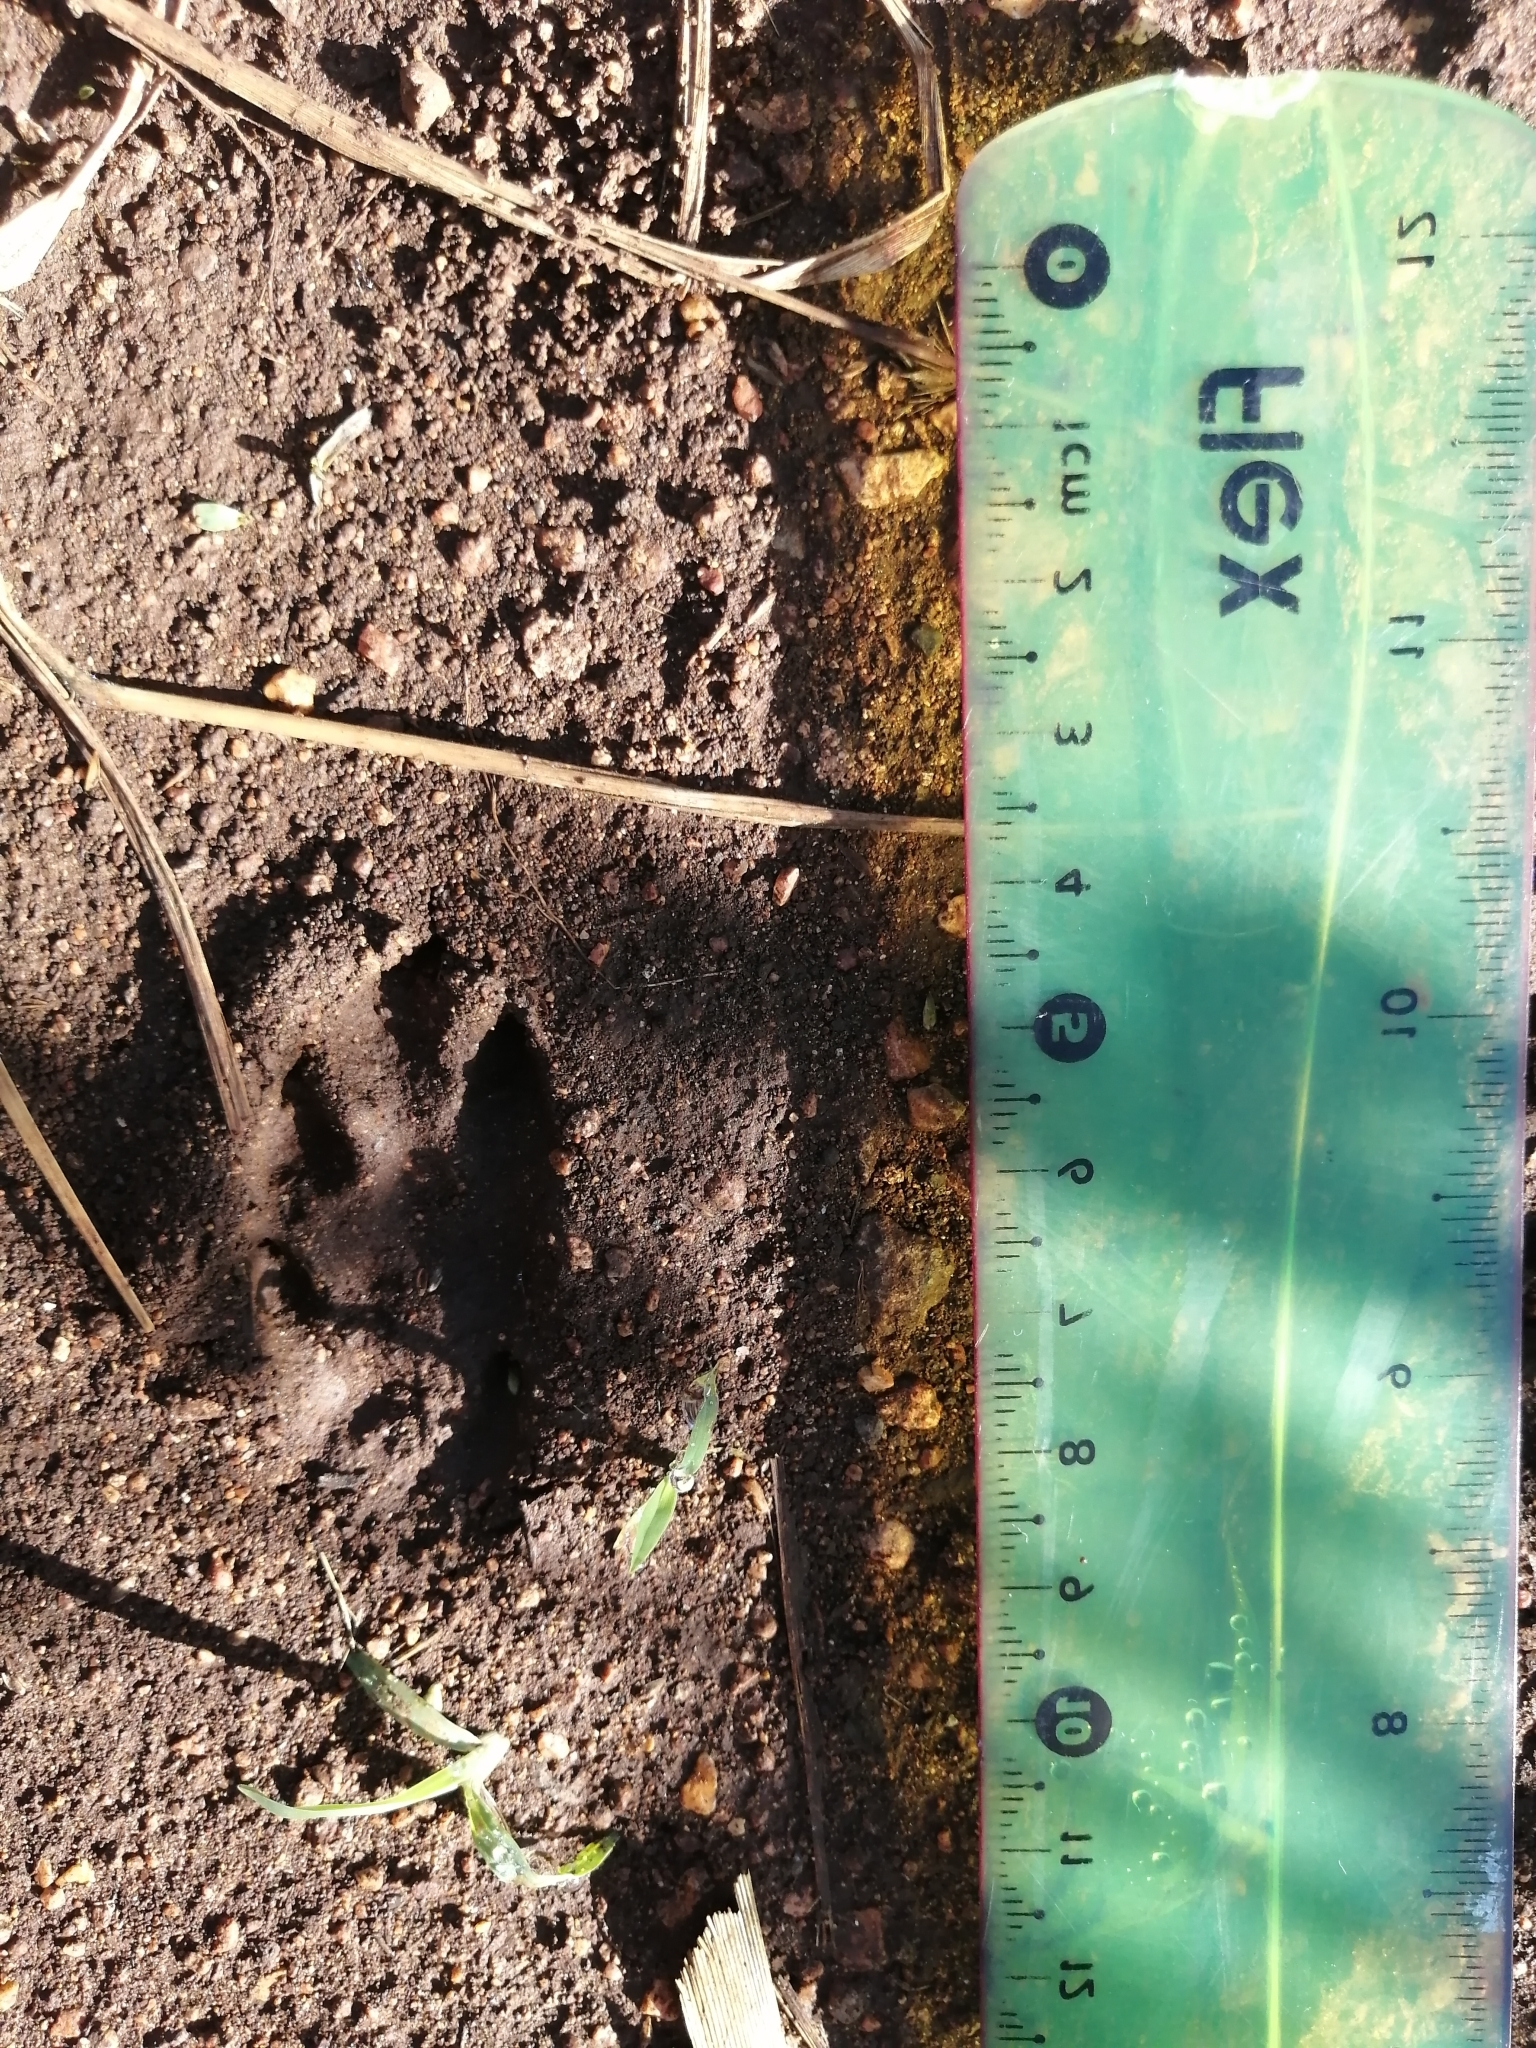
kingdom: Animalia
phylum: Chordata
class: Mammalia
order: Lagomorpha
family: Leporidae
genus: Sylvilagus
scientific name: Sylvilagus floridanus
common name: Eastern cottontail
